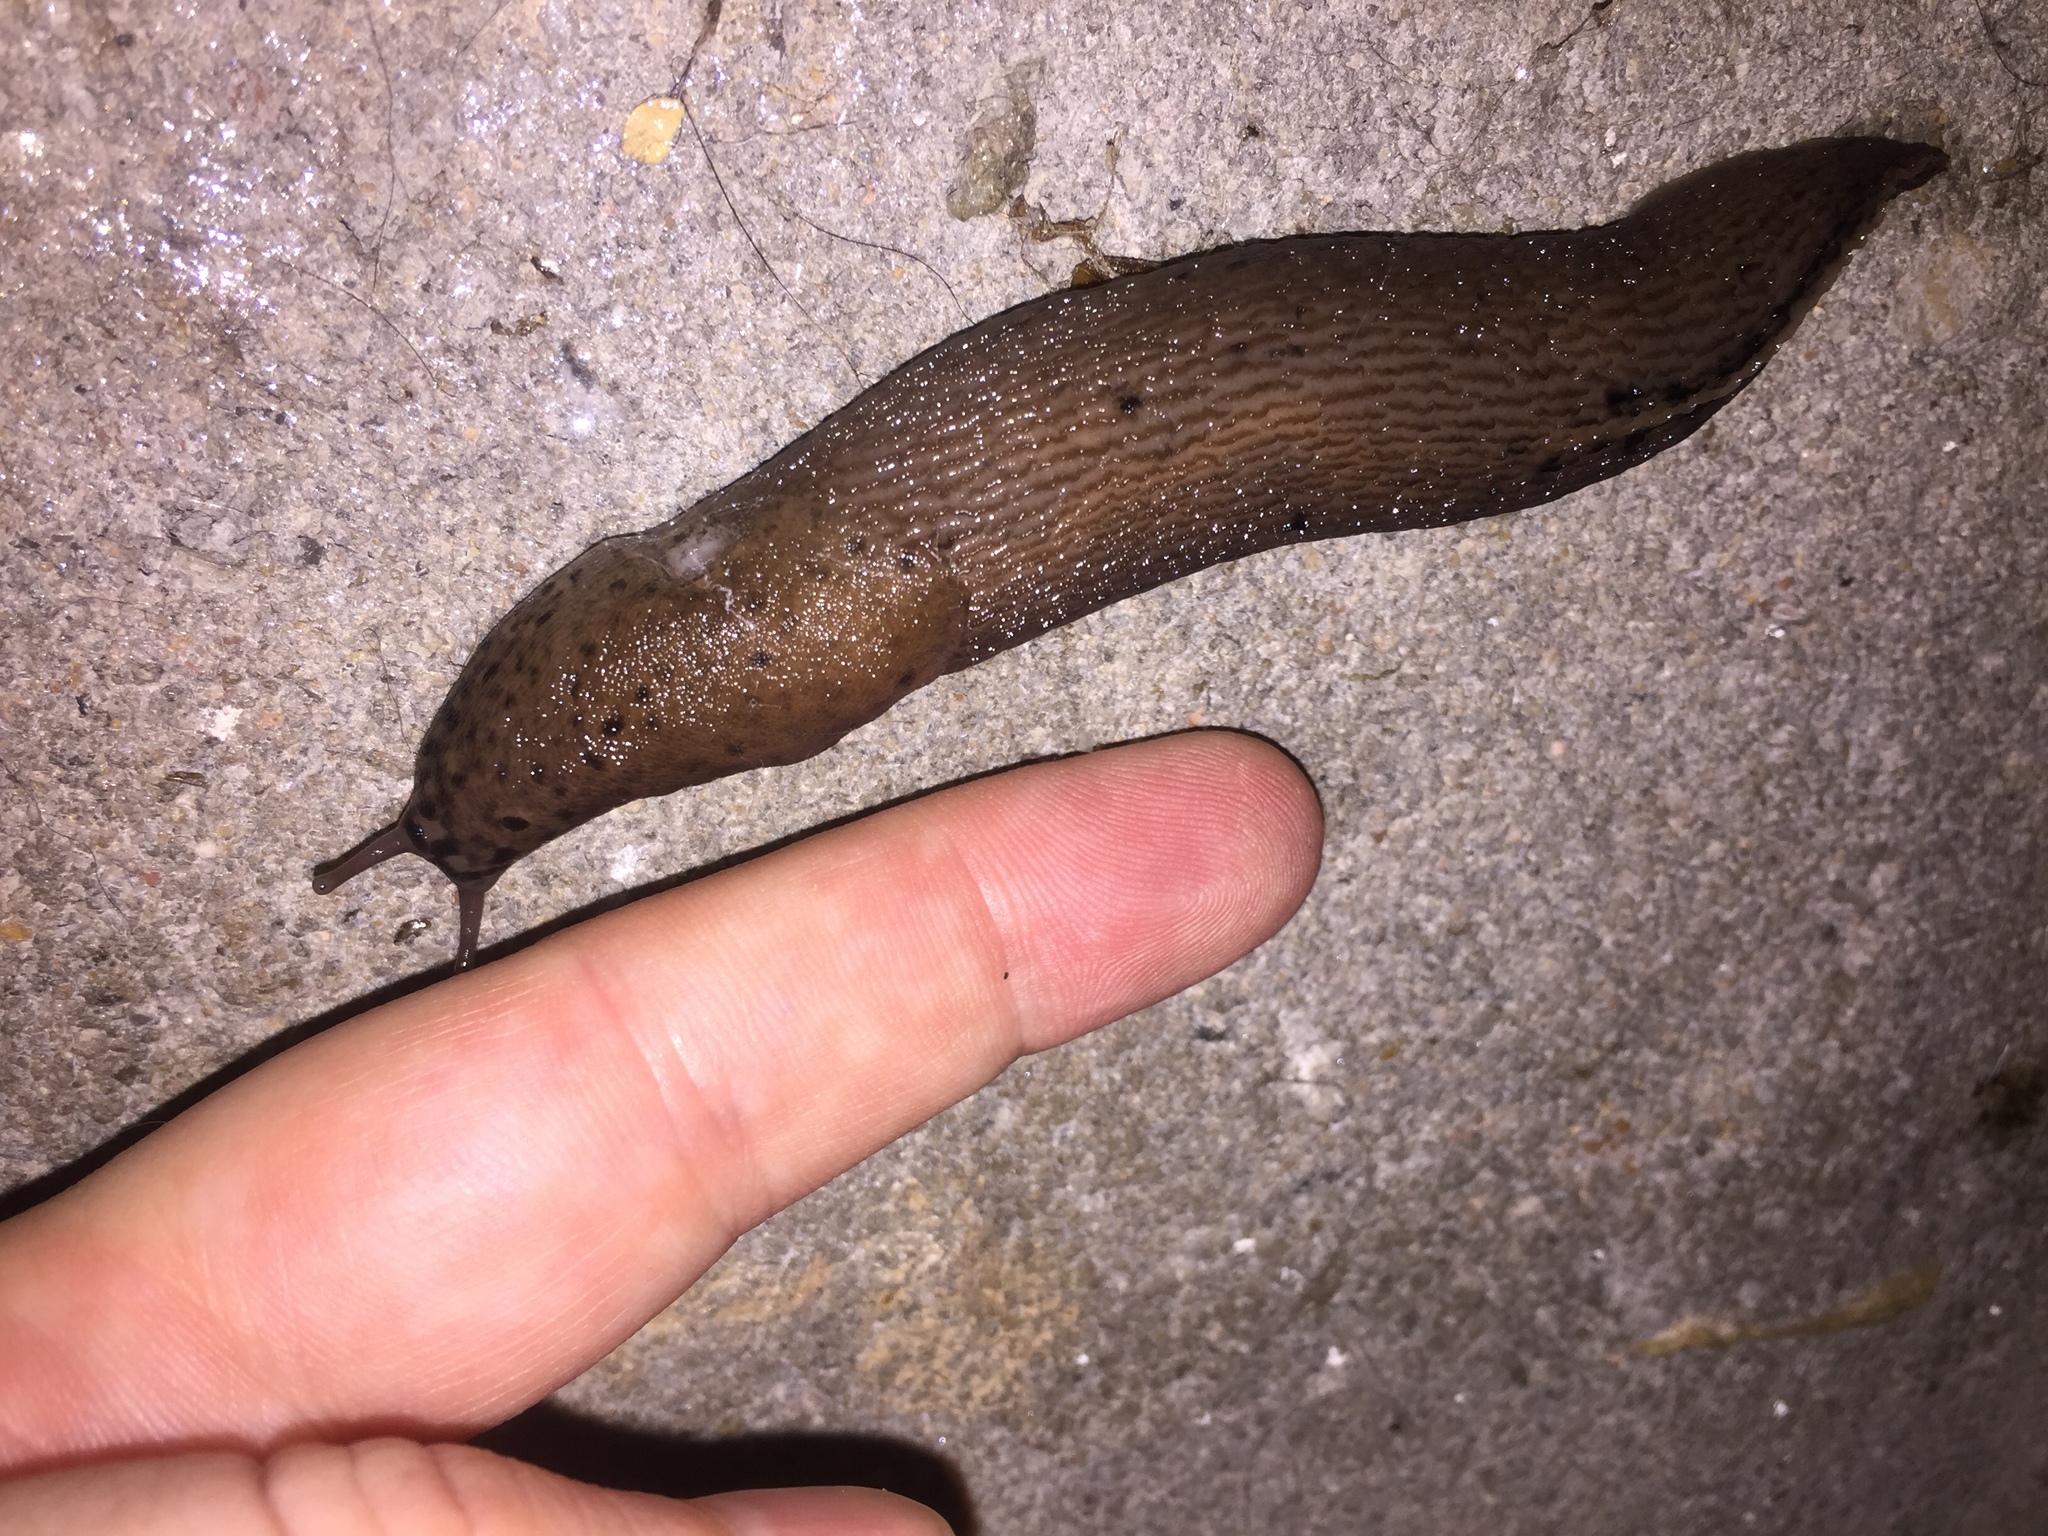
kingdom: Animalia
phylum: Mollusca
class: Gastropoda
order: Stylommatophora
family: Limacidae
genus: Limax
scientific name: Limax maximus
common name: Great grey slug
